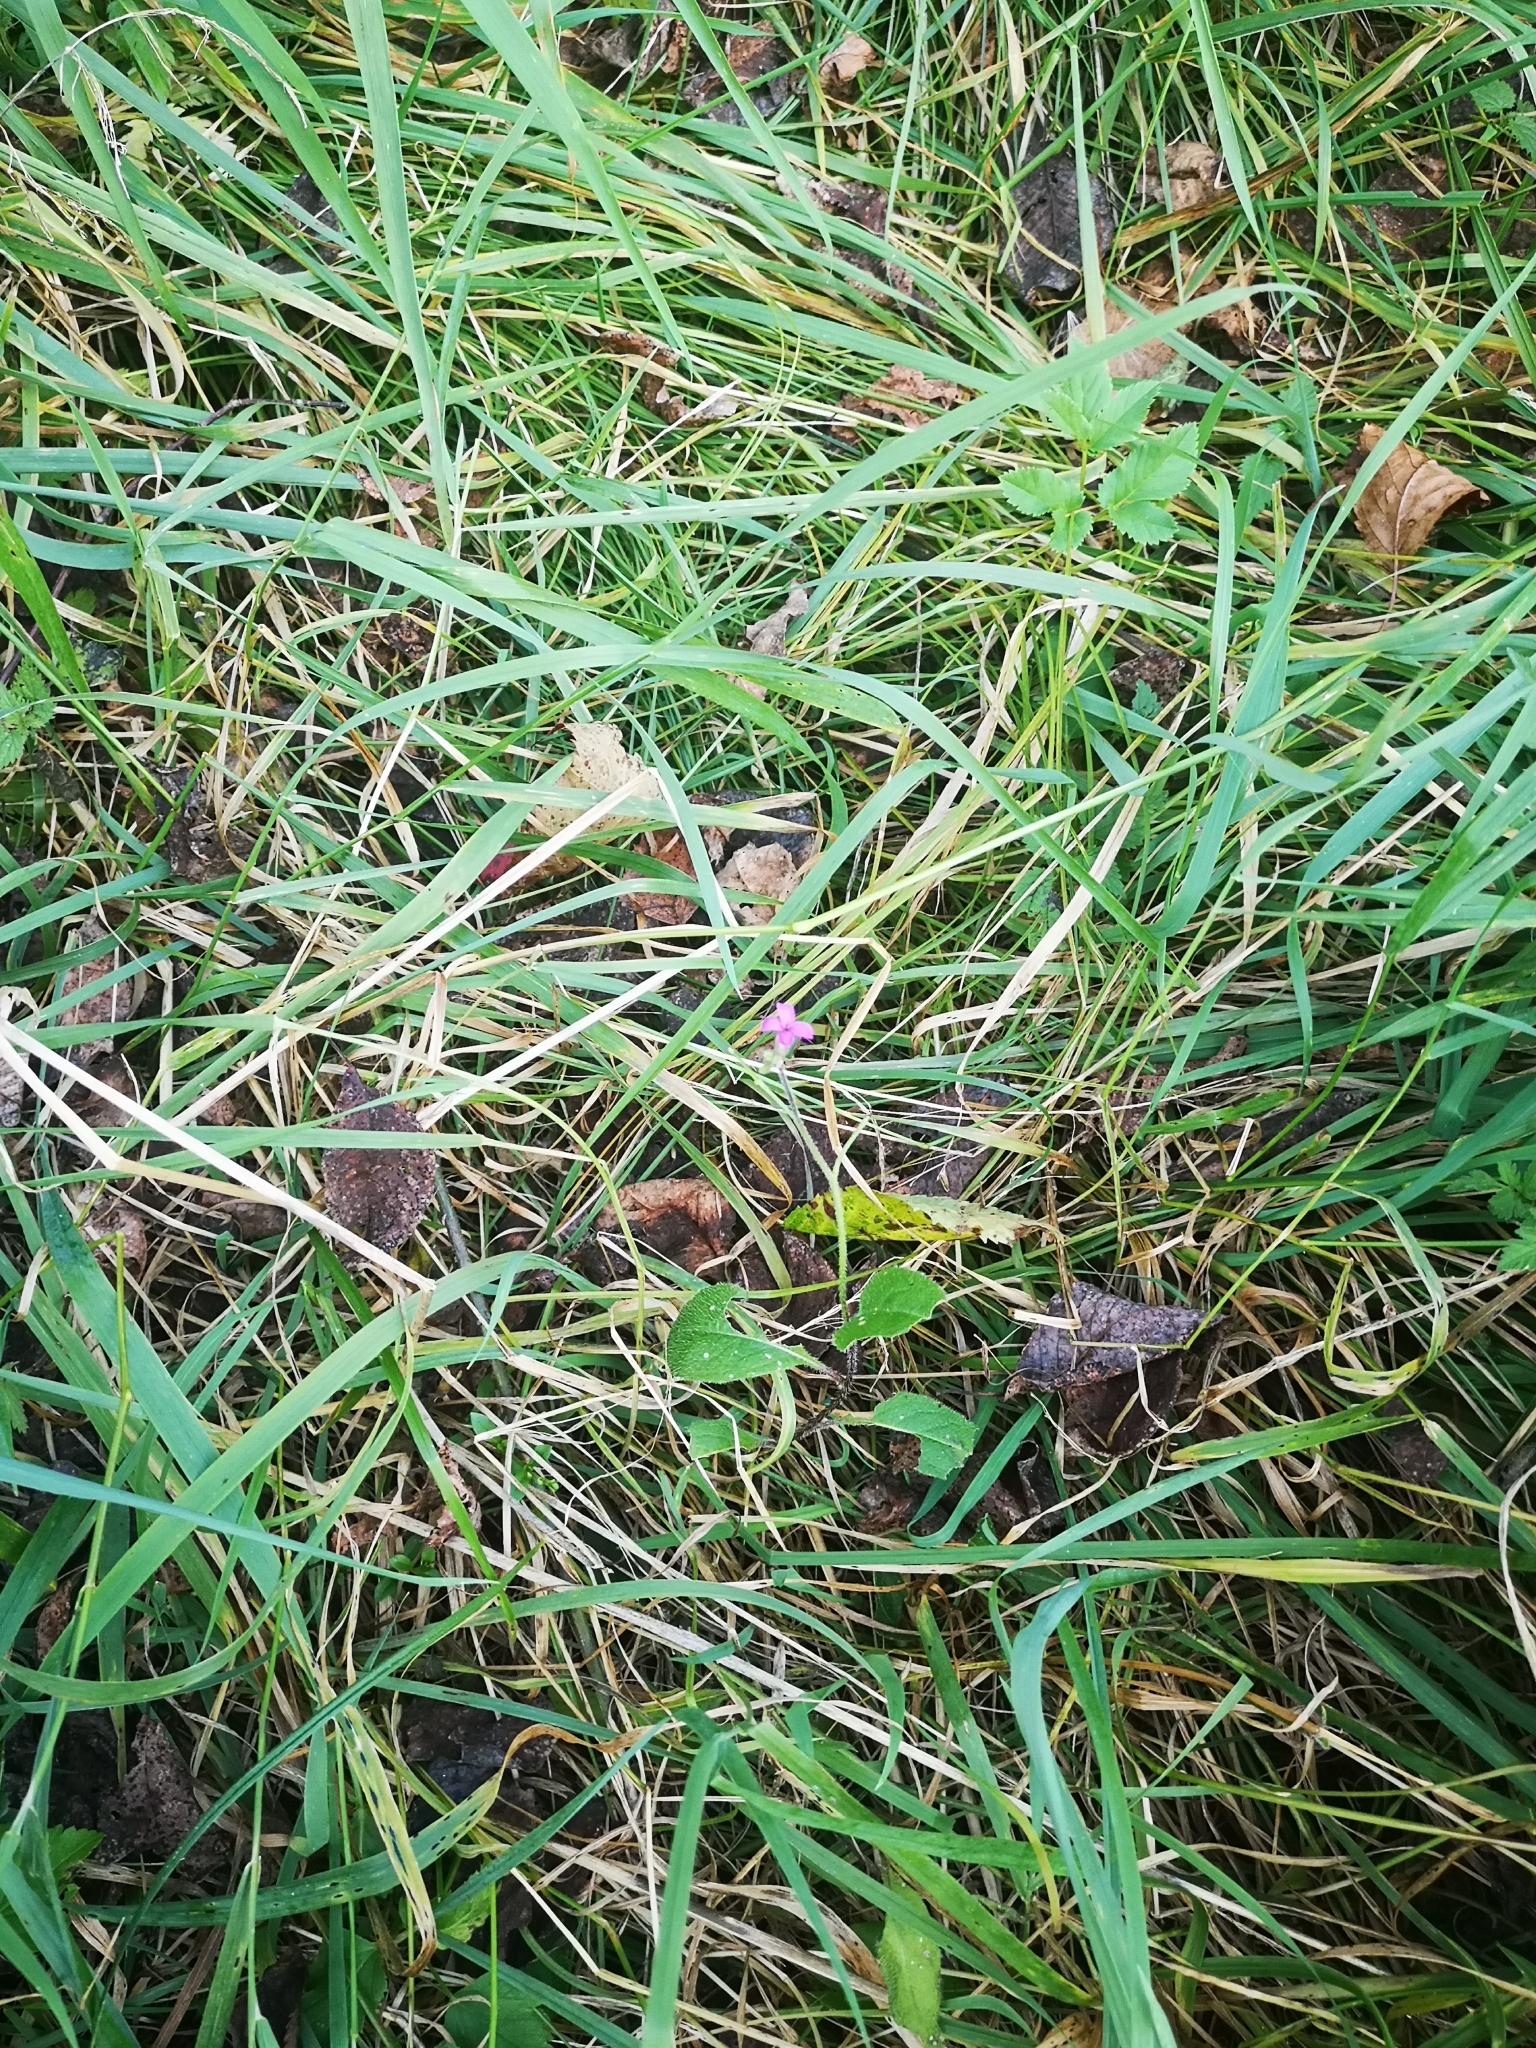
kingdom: Plantae
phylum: Tracheophyta
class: Magnoliopsida
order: Brassicales
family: Brassicaceae
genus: Hesperis
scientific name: Hesperis matronalis
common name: Dame's-violet
